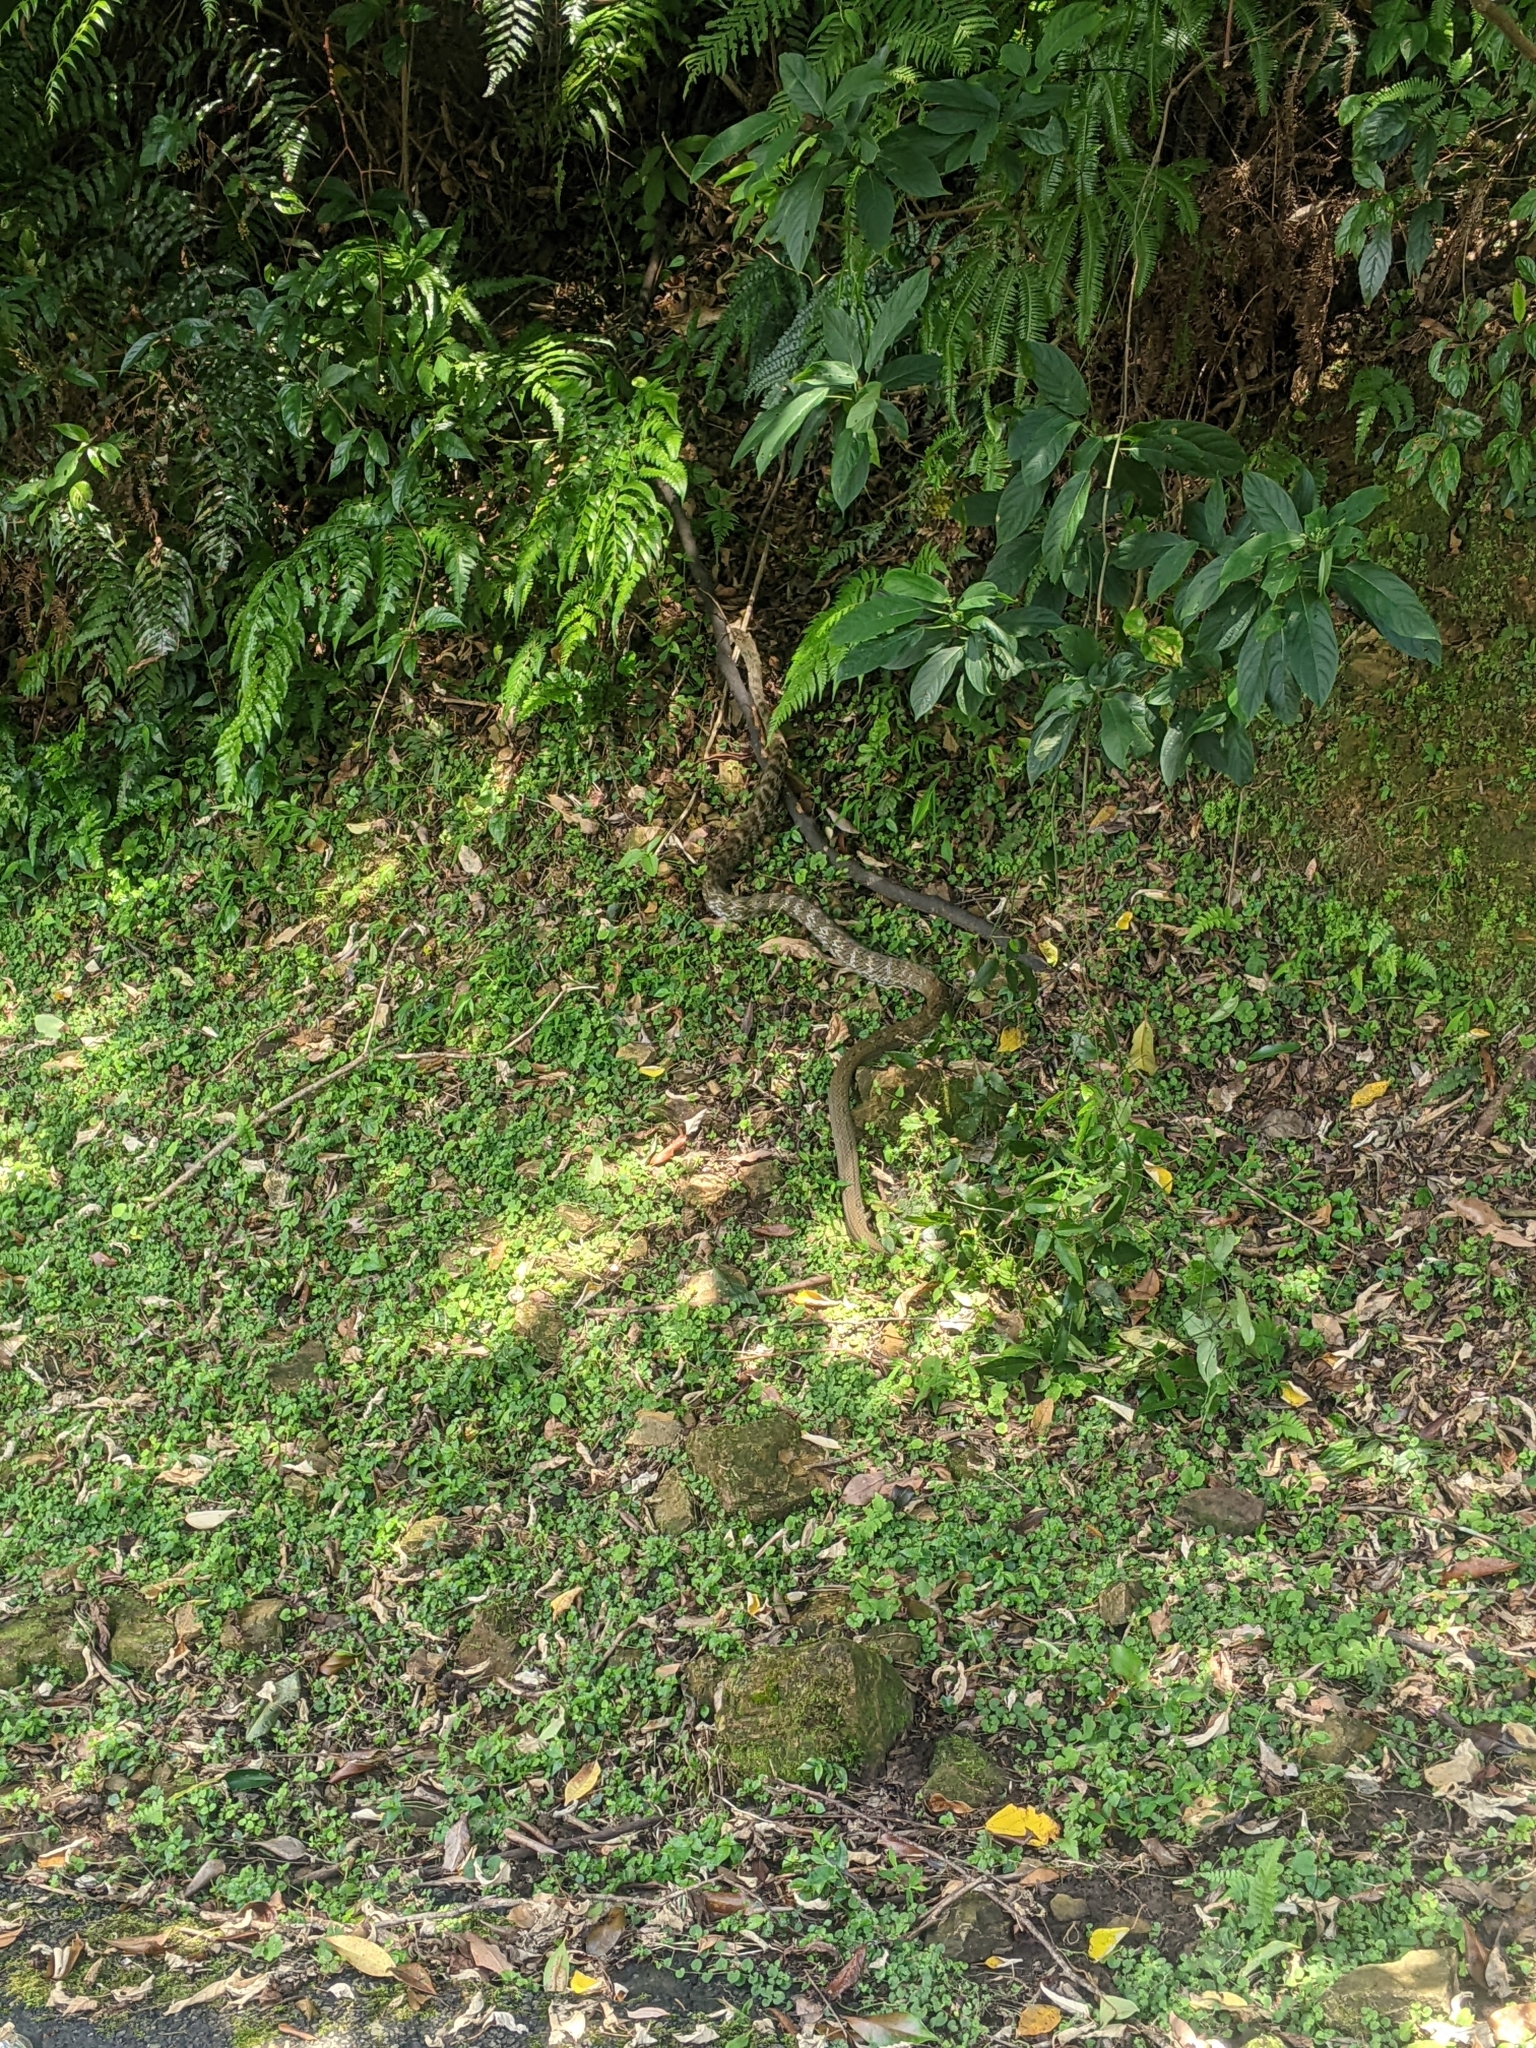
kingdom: Animalia
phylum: Chordata
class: Squamata
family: Colubridae
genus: Elaphe
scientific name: Elaphe carinata
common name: Taiwan stink snake
